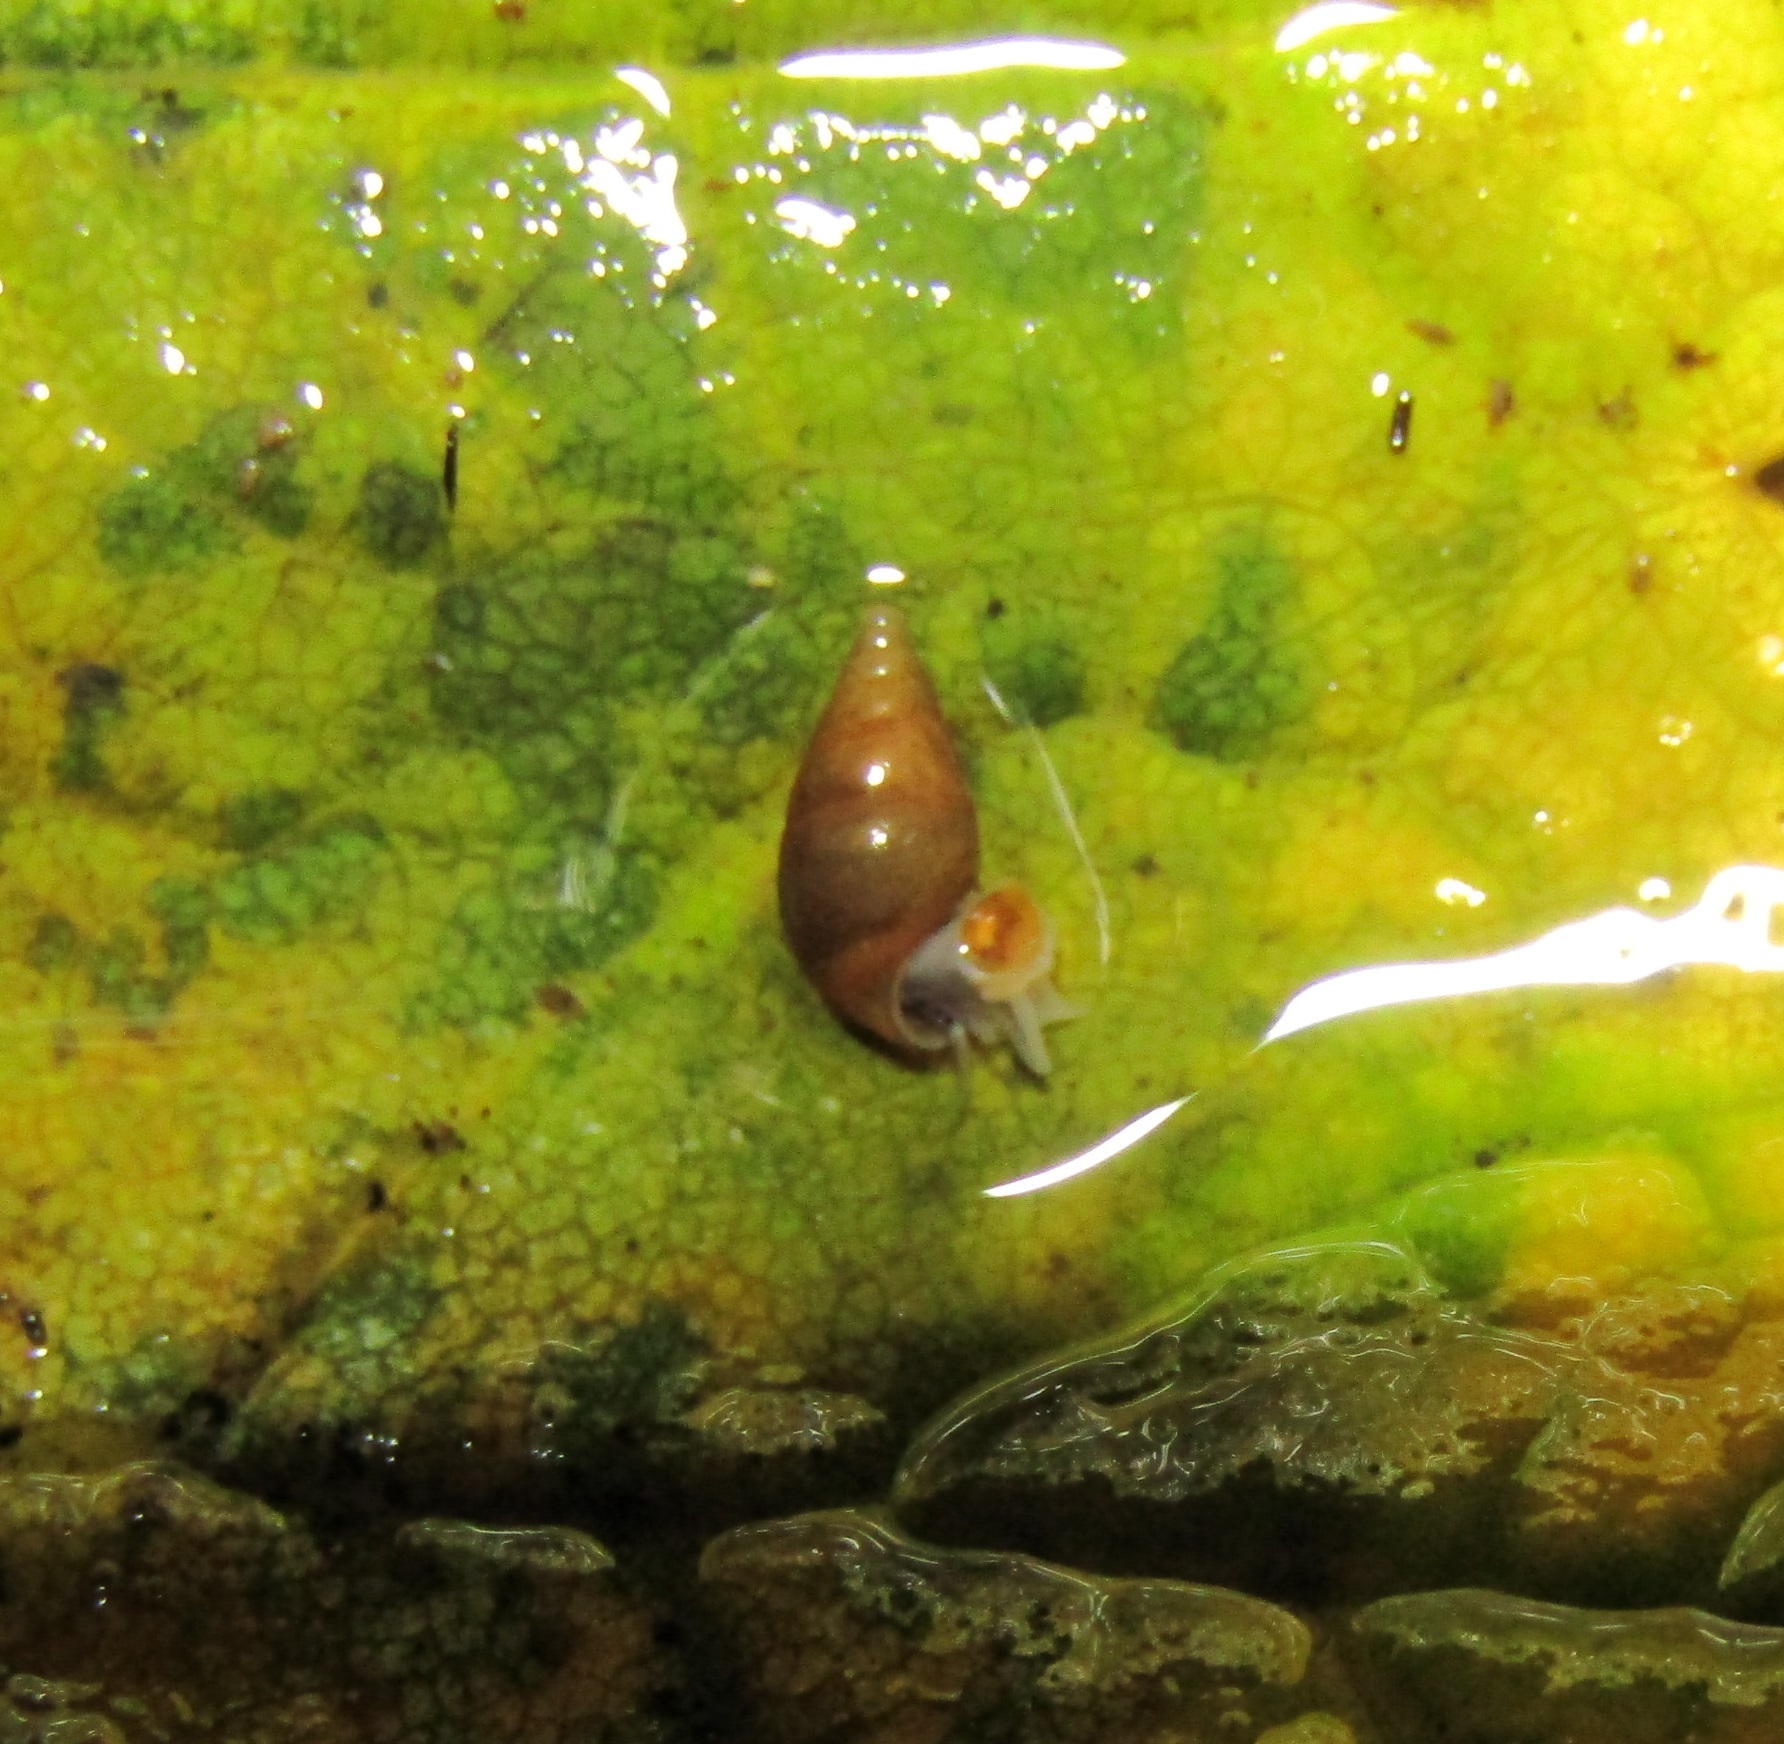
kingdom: Animalia
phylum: Mollusca
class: Gastropoda
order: Littorinimorpha
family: Tateidae
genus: Potamopyrgus
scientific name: Potamopyrgus antipodarum
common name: Jenkins' spire snail
